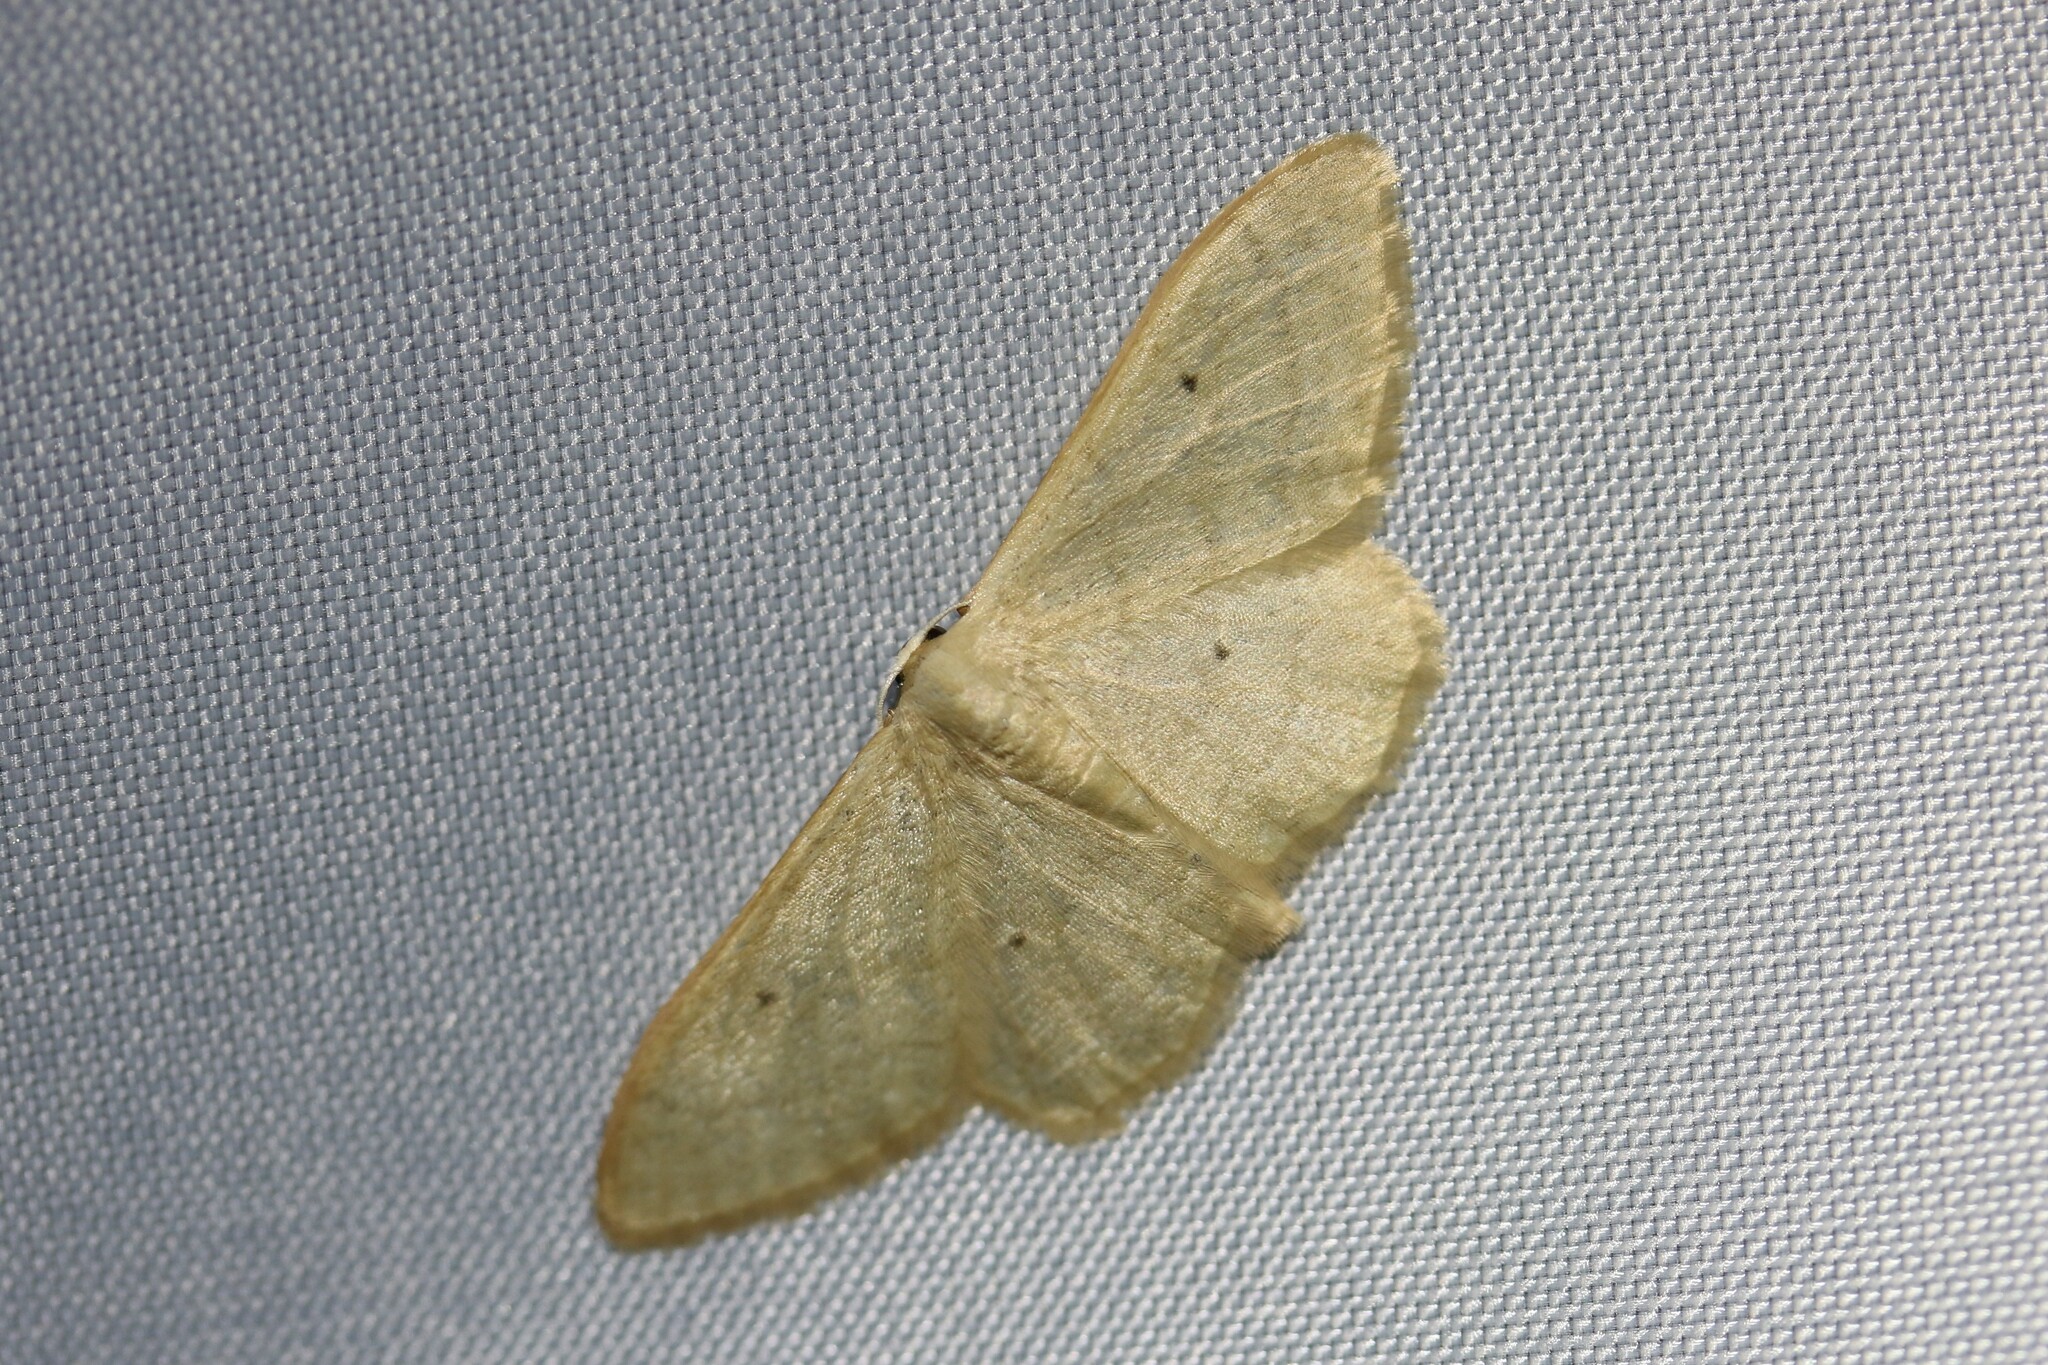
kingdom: Animalia
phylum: Arthropoda
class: Insecta
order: Lepidoptera
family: Geometridae
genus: Idaea
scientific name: Idaea straminata
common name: Plain wave
